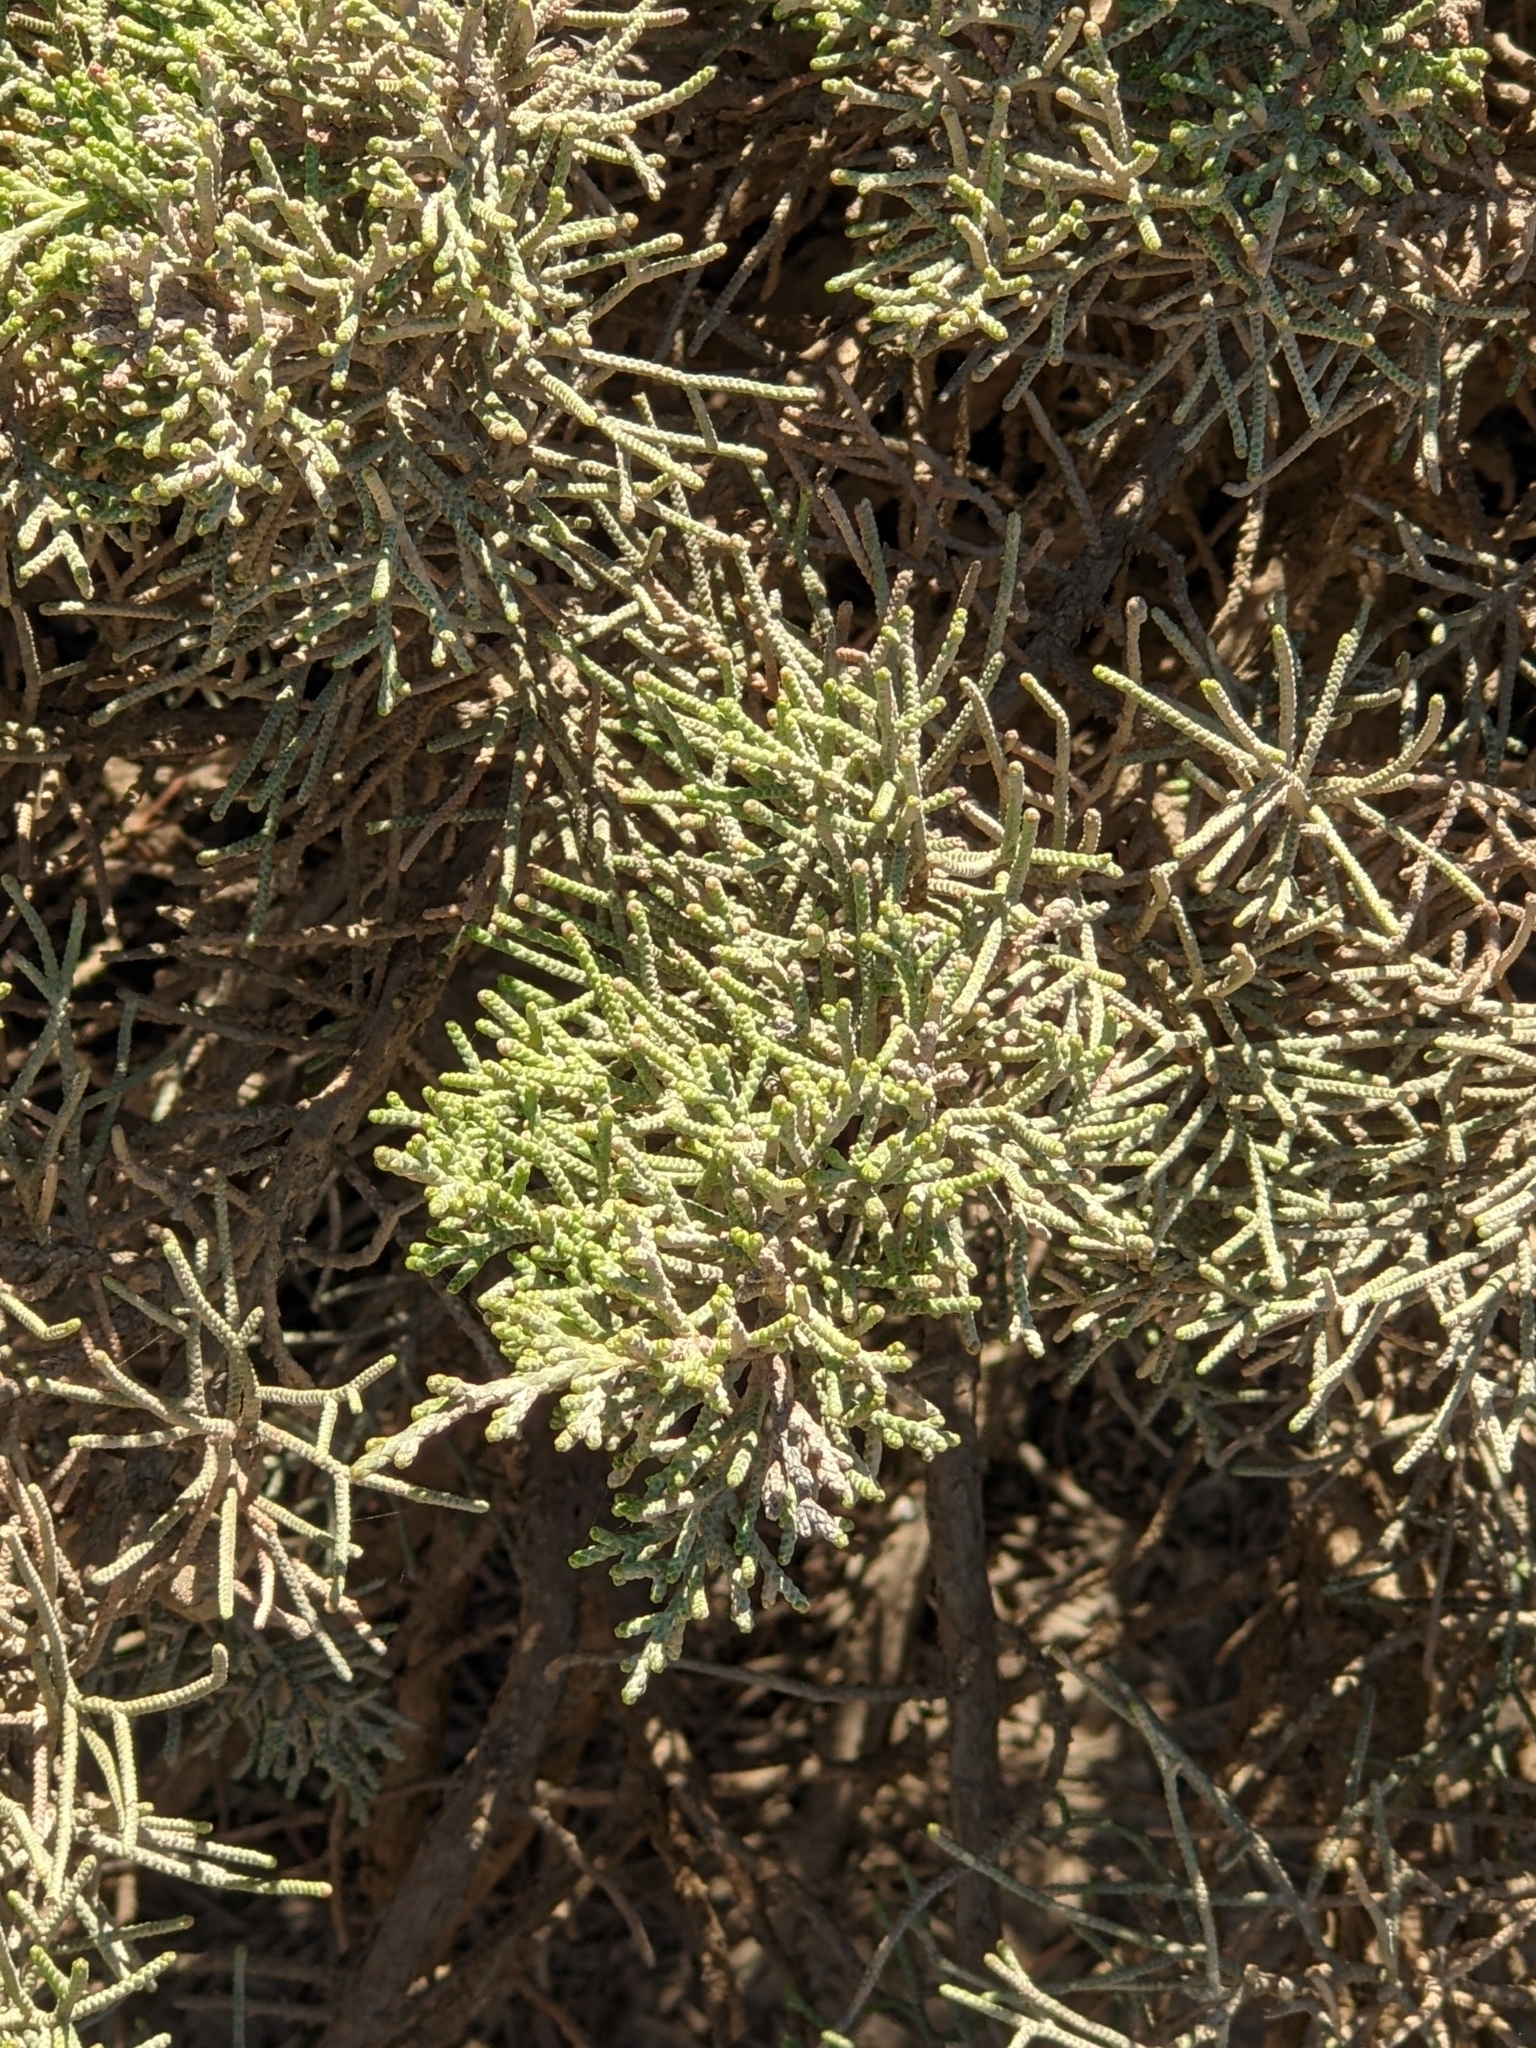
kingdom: Plantae
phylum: Tracheophyta
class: Pinopsida
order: Pinales
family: Cupressaceae
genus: Juniperus
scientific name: Juniperus phoenicea
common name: Phoenician juniper
